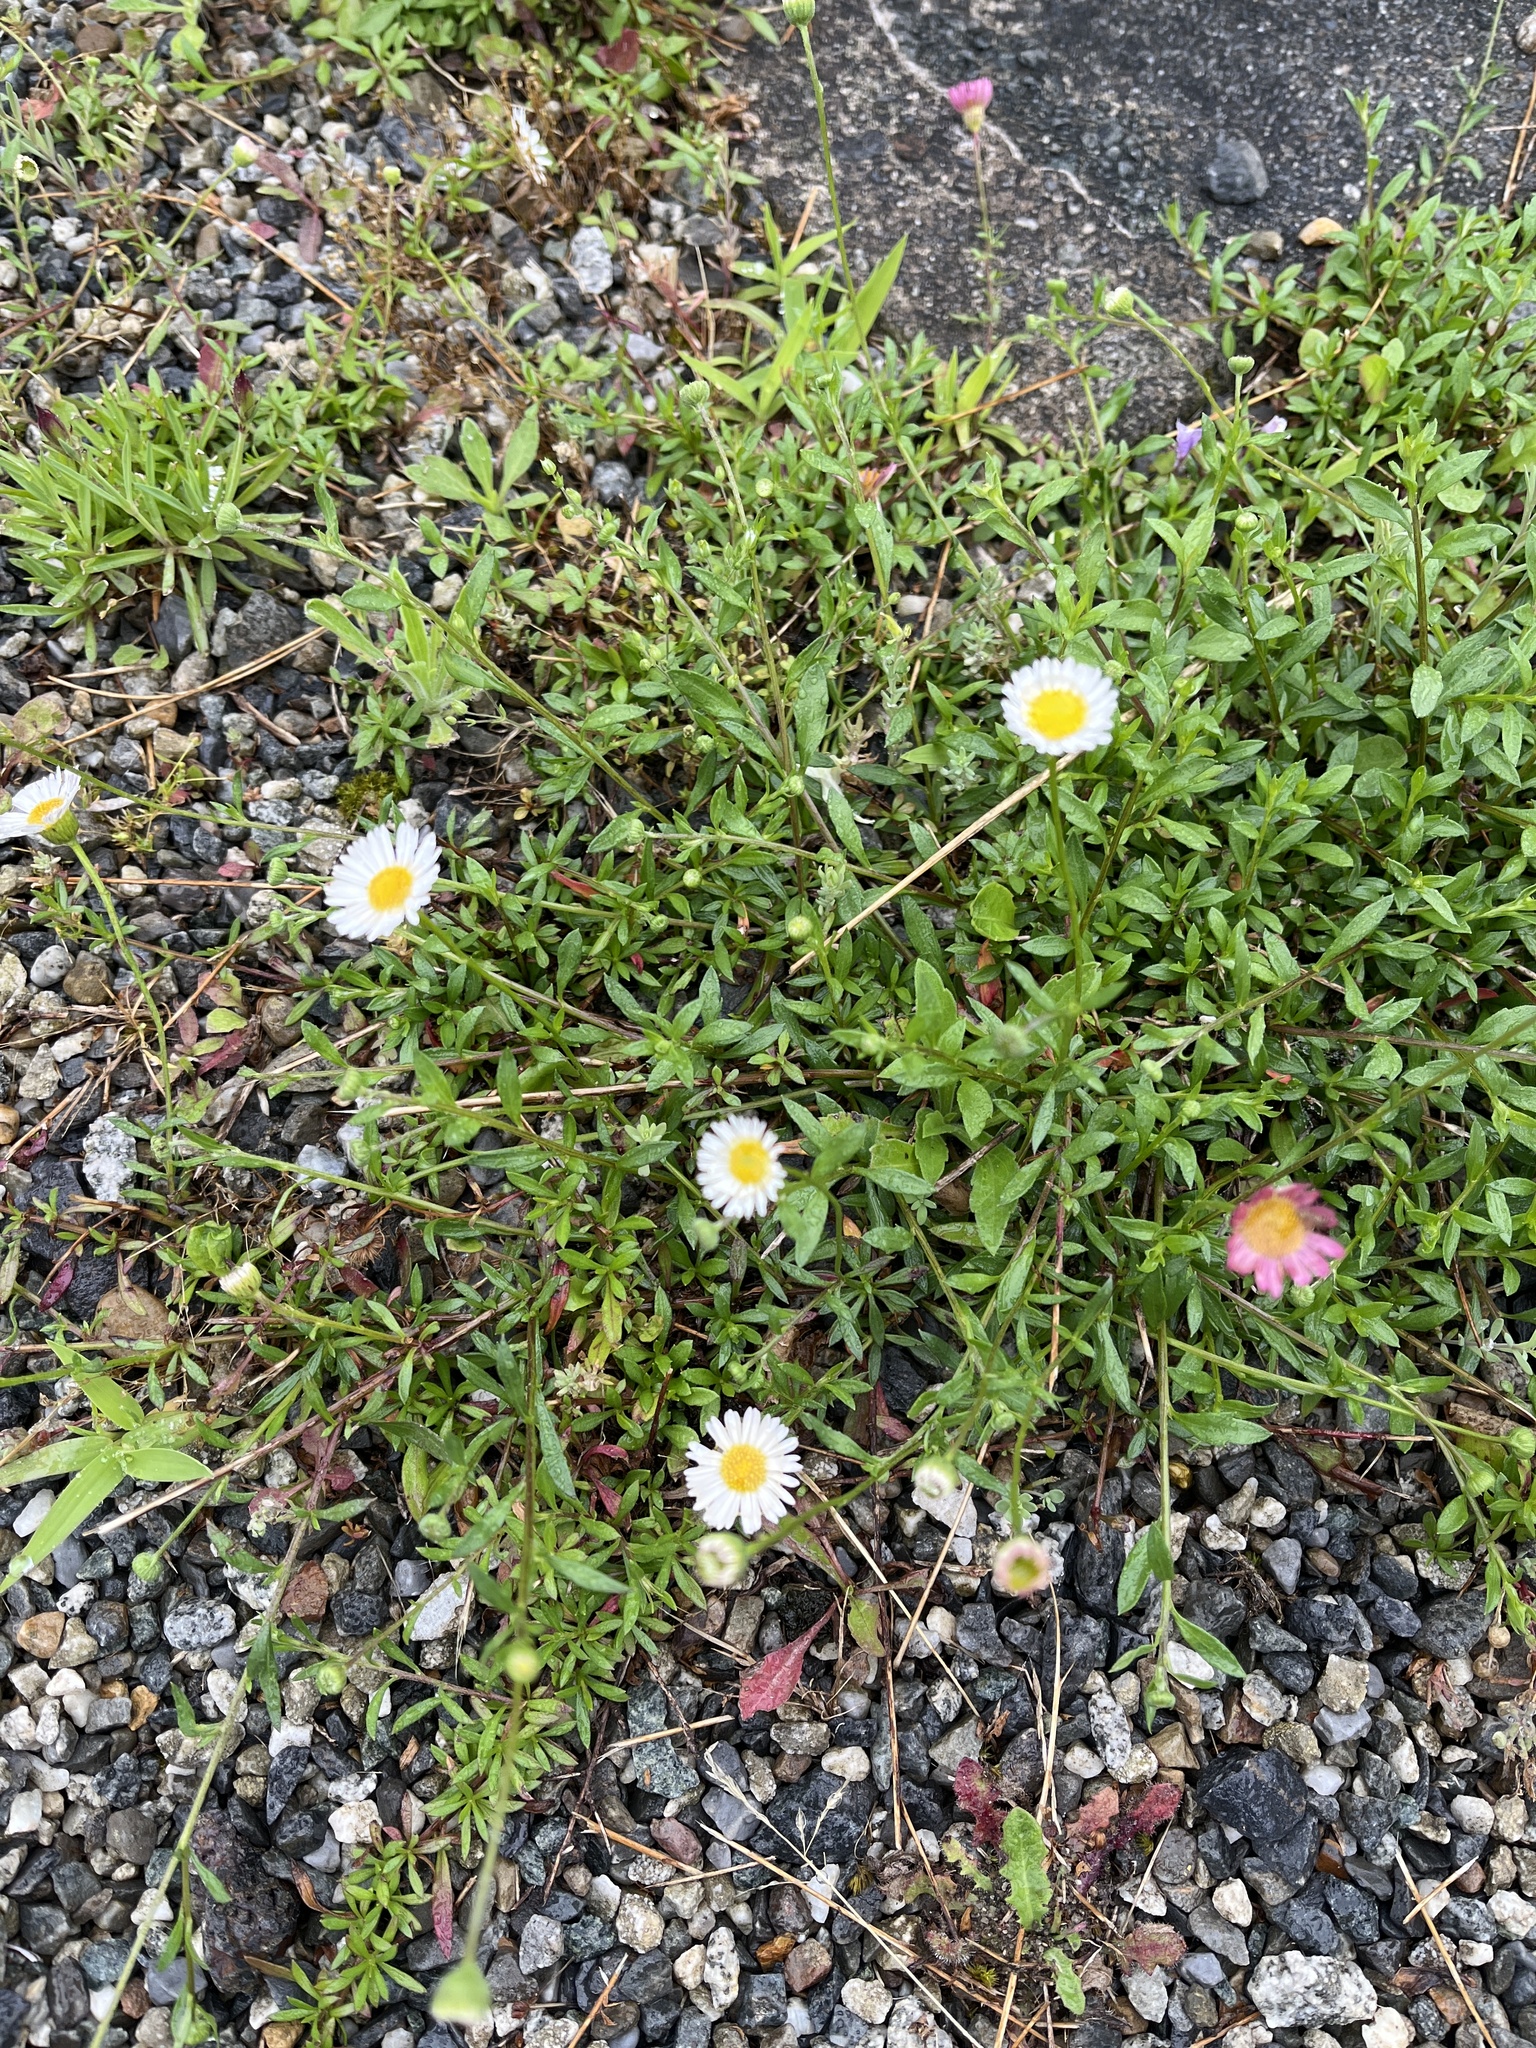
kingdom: Plantae
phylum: Tracheophyta
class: Magnoliopsida
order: Asterales
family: Asteraceae
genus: Erigeron
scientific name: Erigeron karvinskianus
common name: Mexican fleabane
